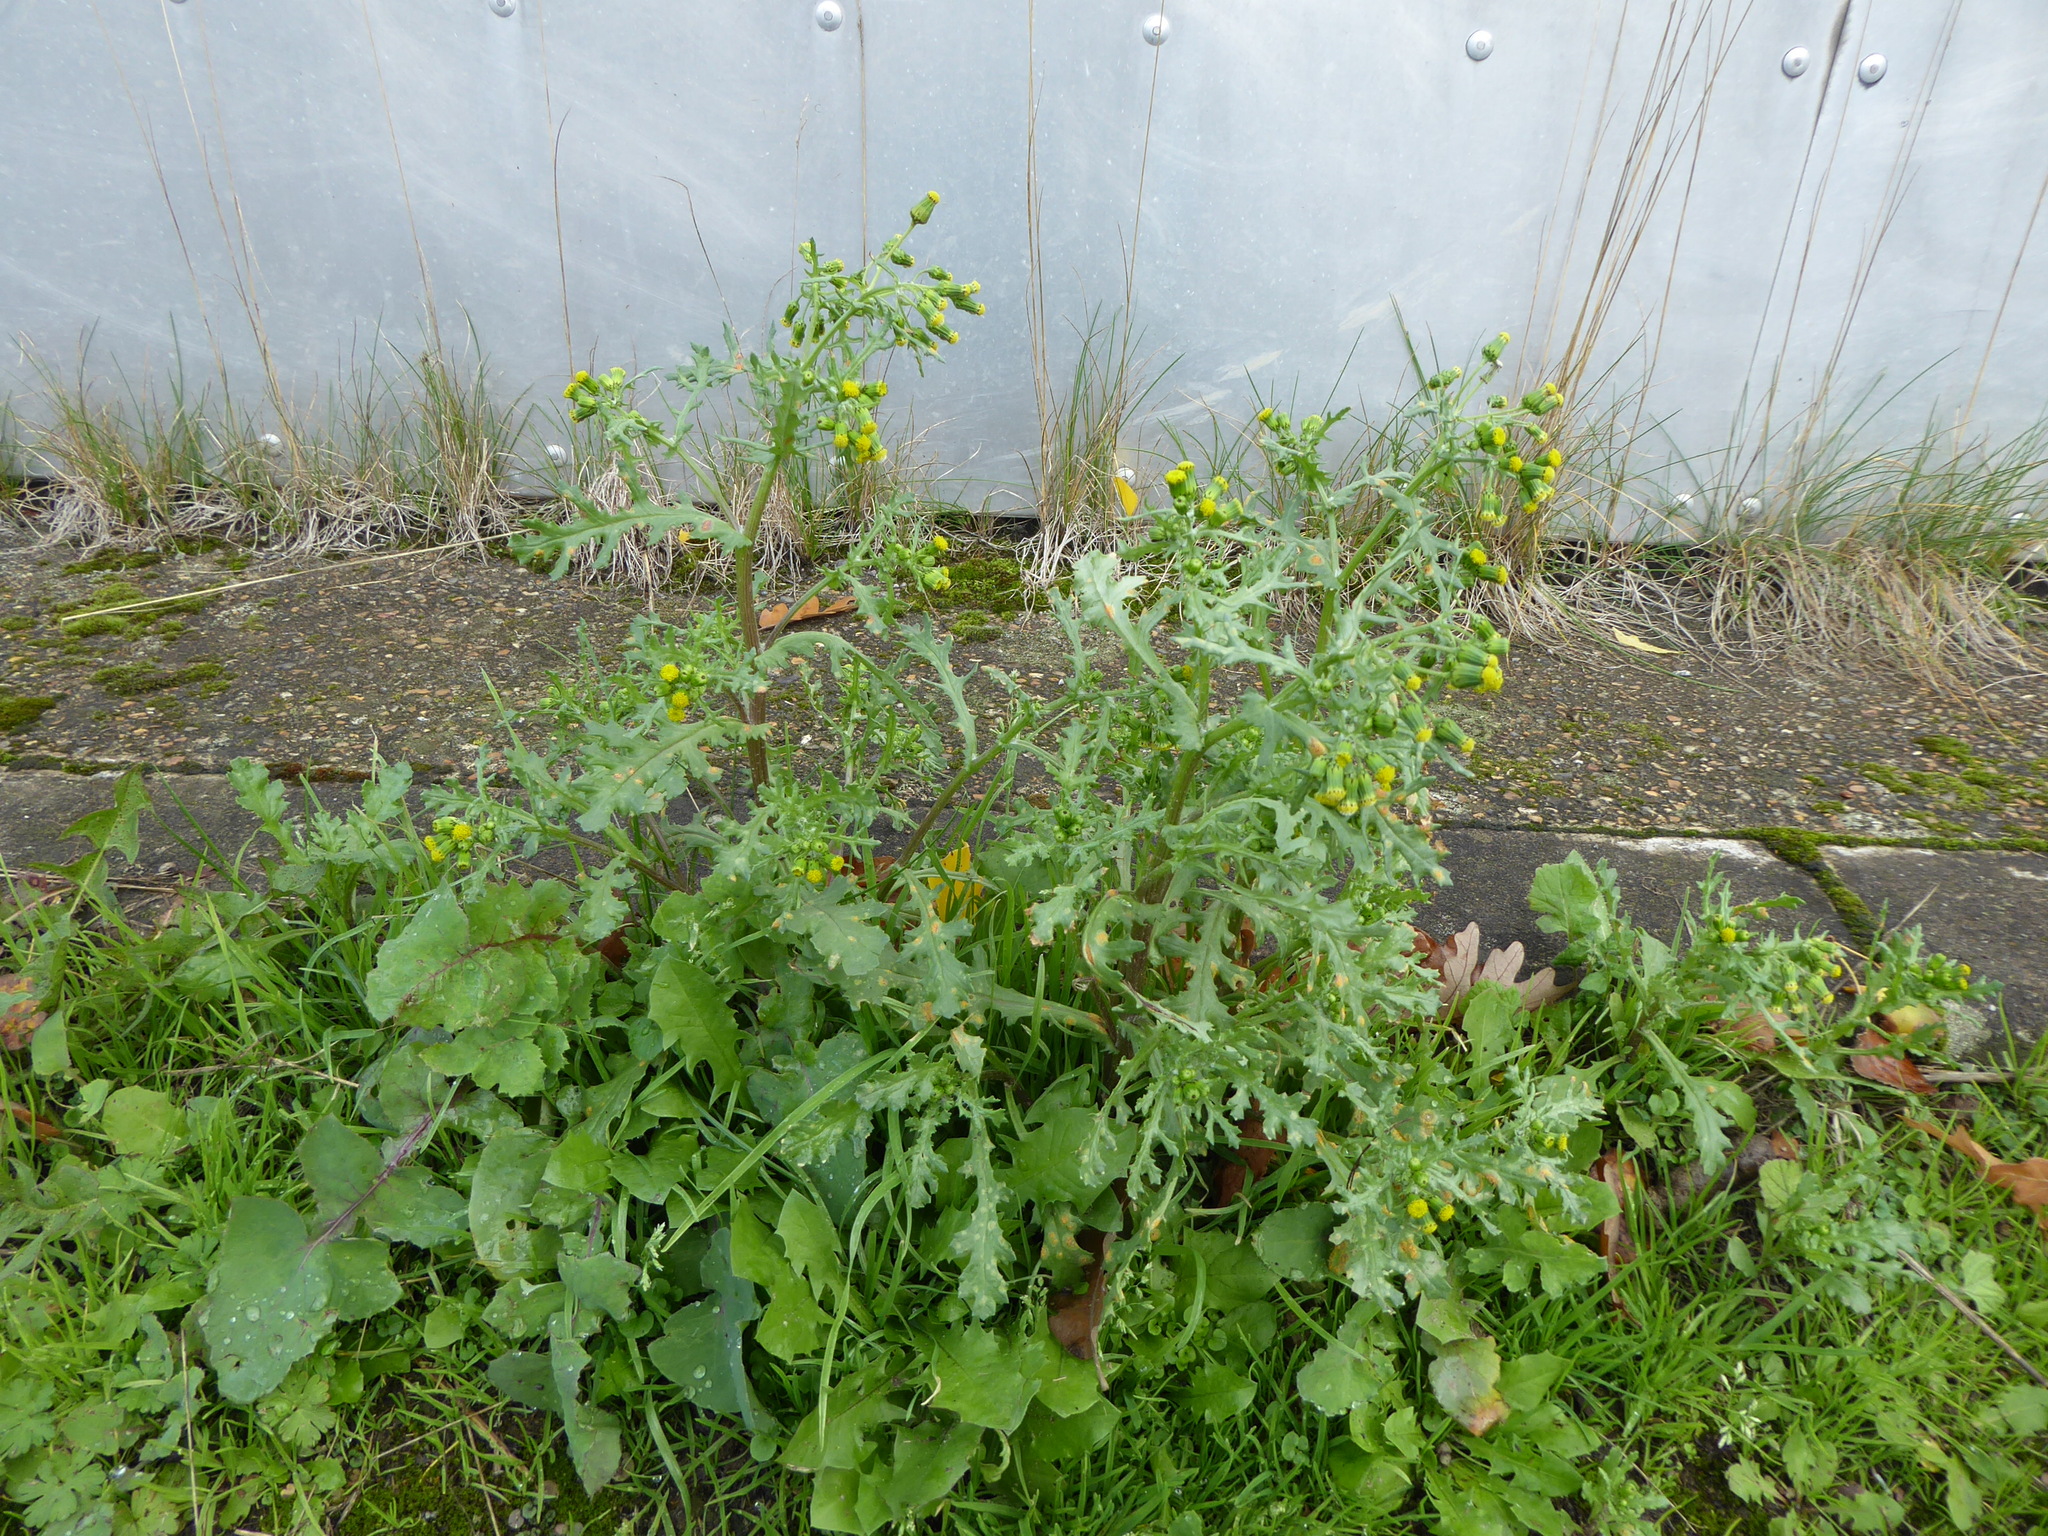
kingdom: Plantae
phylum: Tracheophyta
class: Magnoliopsida
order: Asterales
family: Asteraceae
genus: Senecio
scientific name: Senecio vulgaris
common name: Old-man-in-the-spring
